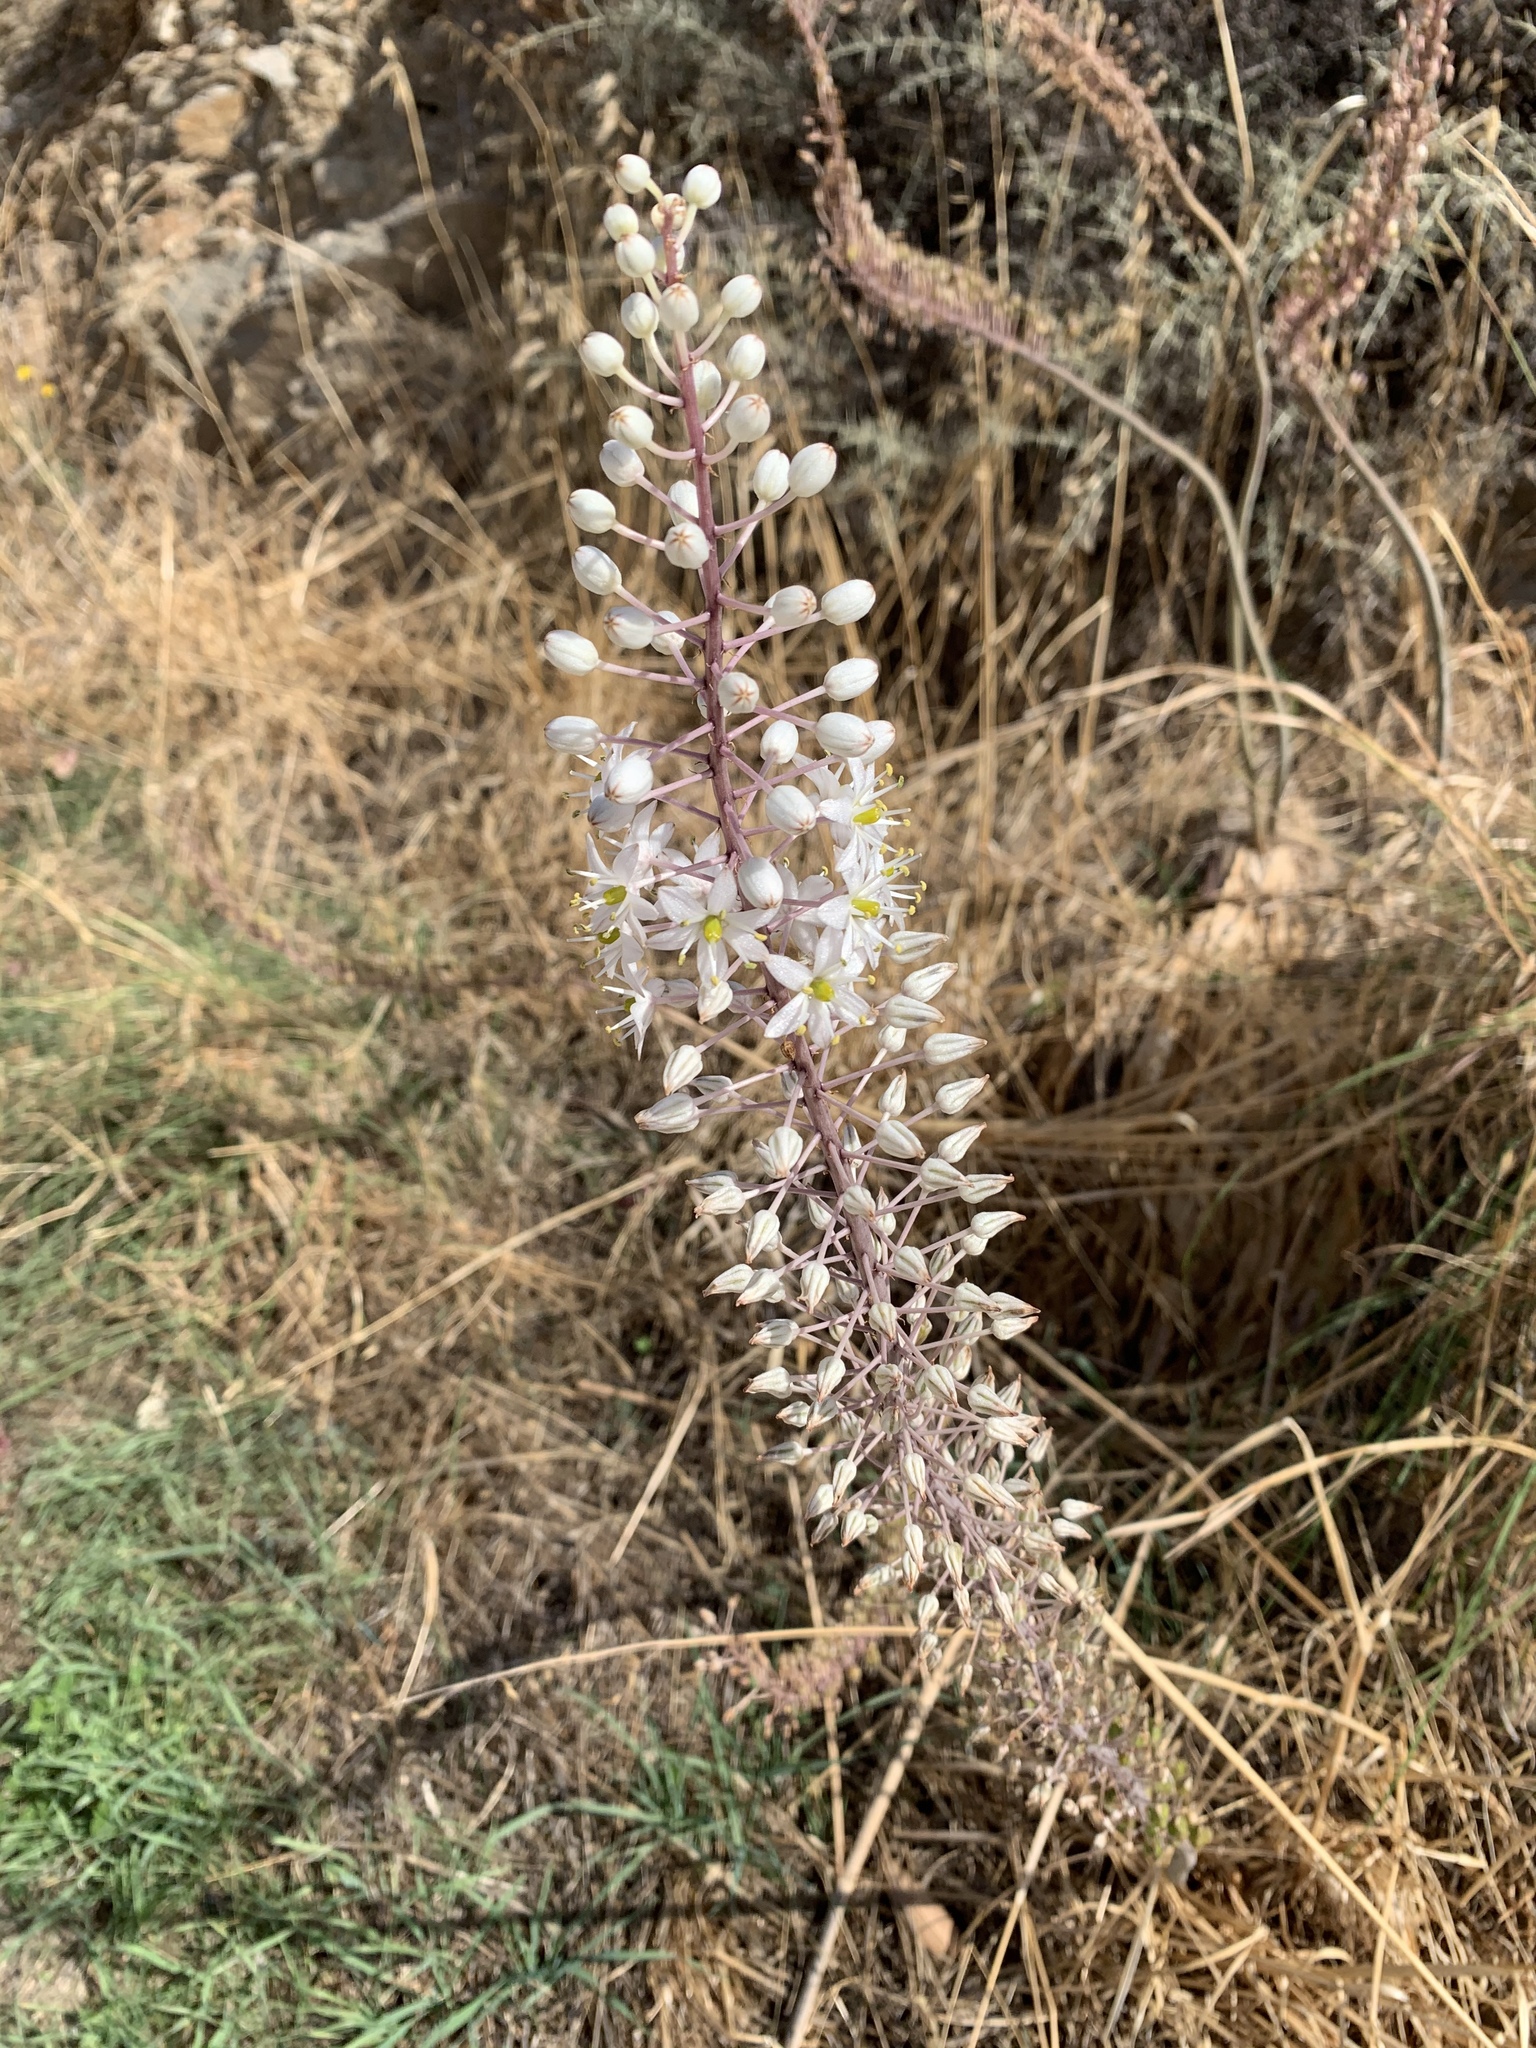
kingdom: Plantae
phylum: Tracheophyta
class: Liliopsida
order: Asparagales
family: Asparagaceae
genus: Drimia
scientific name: Drimia numidica
